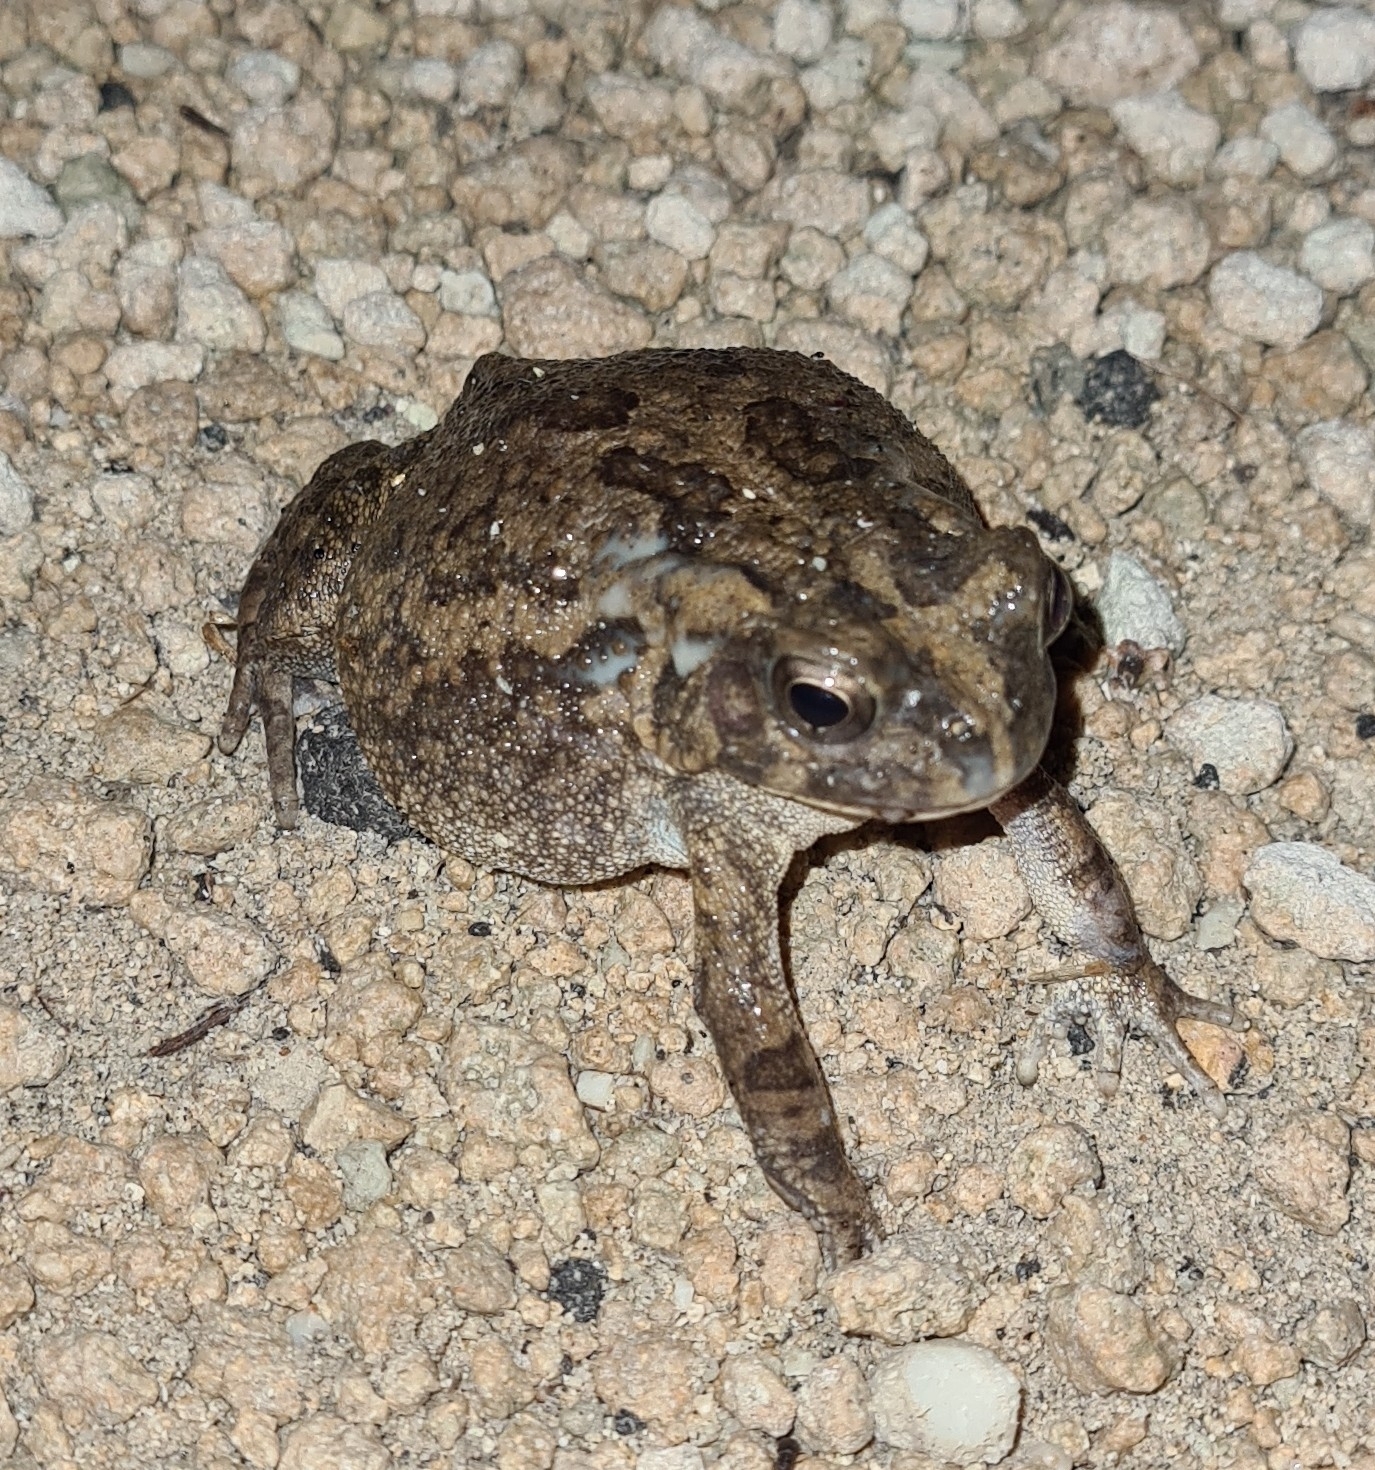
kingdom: Animalia
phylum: Chordata
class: Amphibia
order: Anura
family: Bufonidae
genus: Sclerophrys
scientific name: Sclerophrys gutturalis
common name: African common toad
